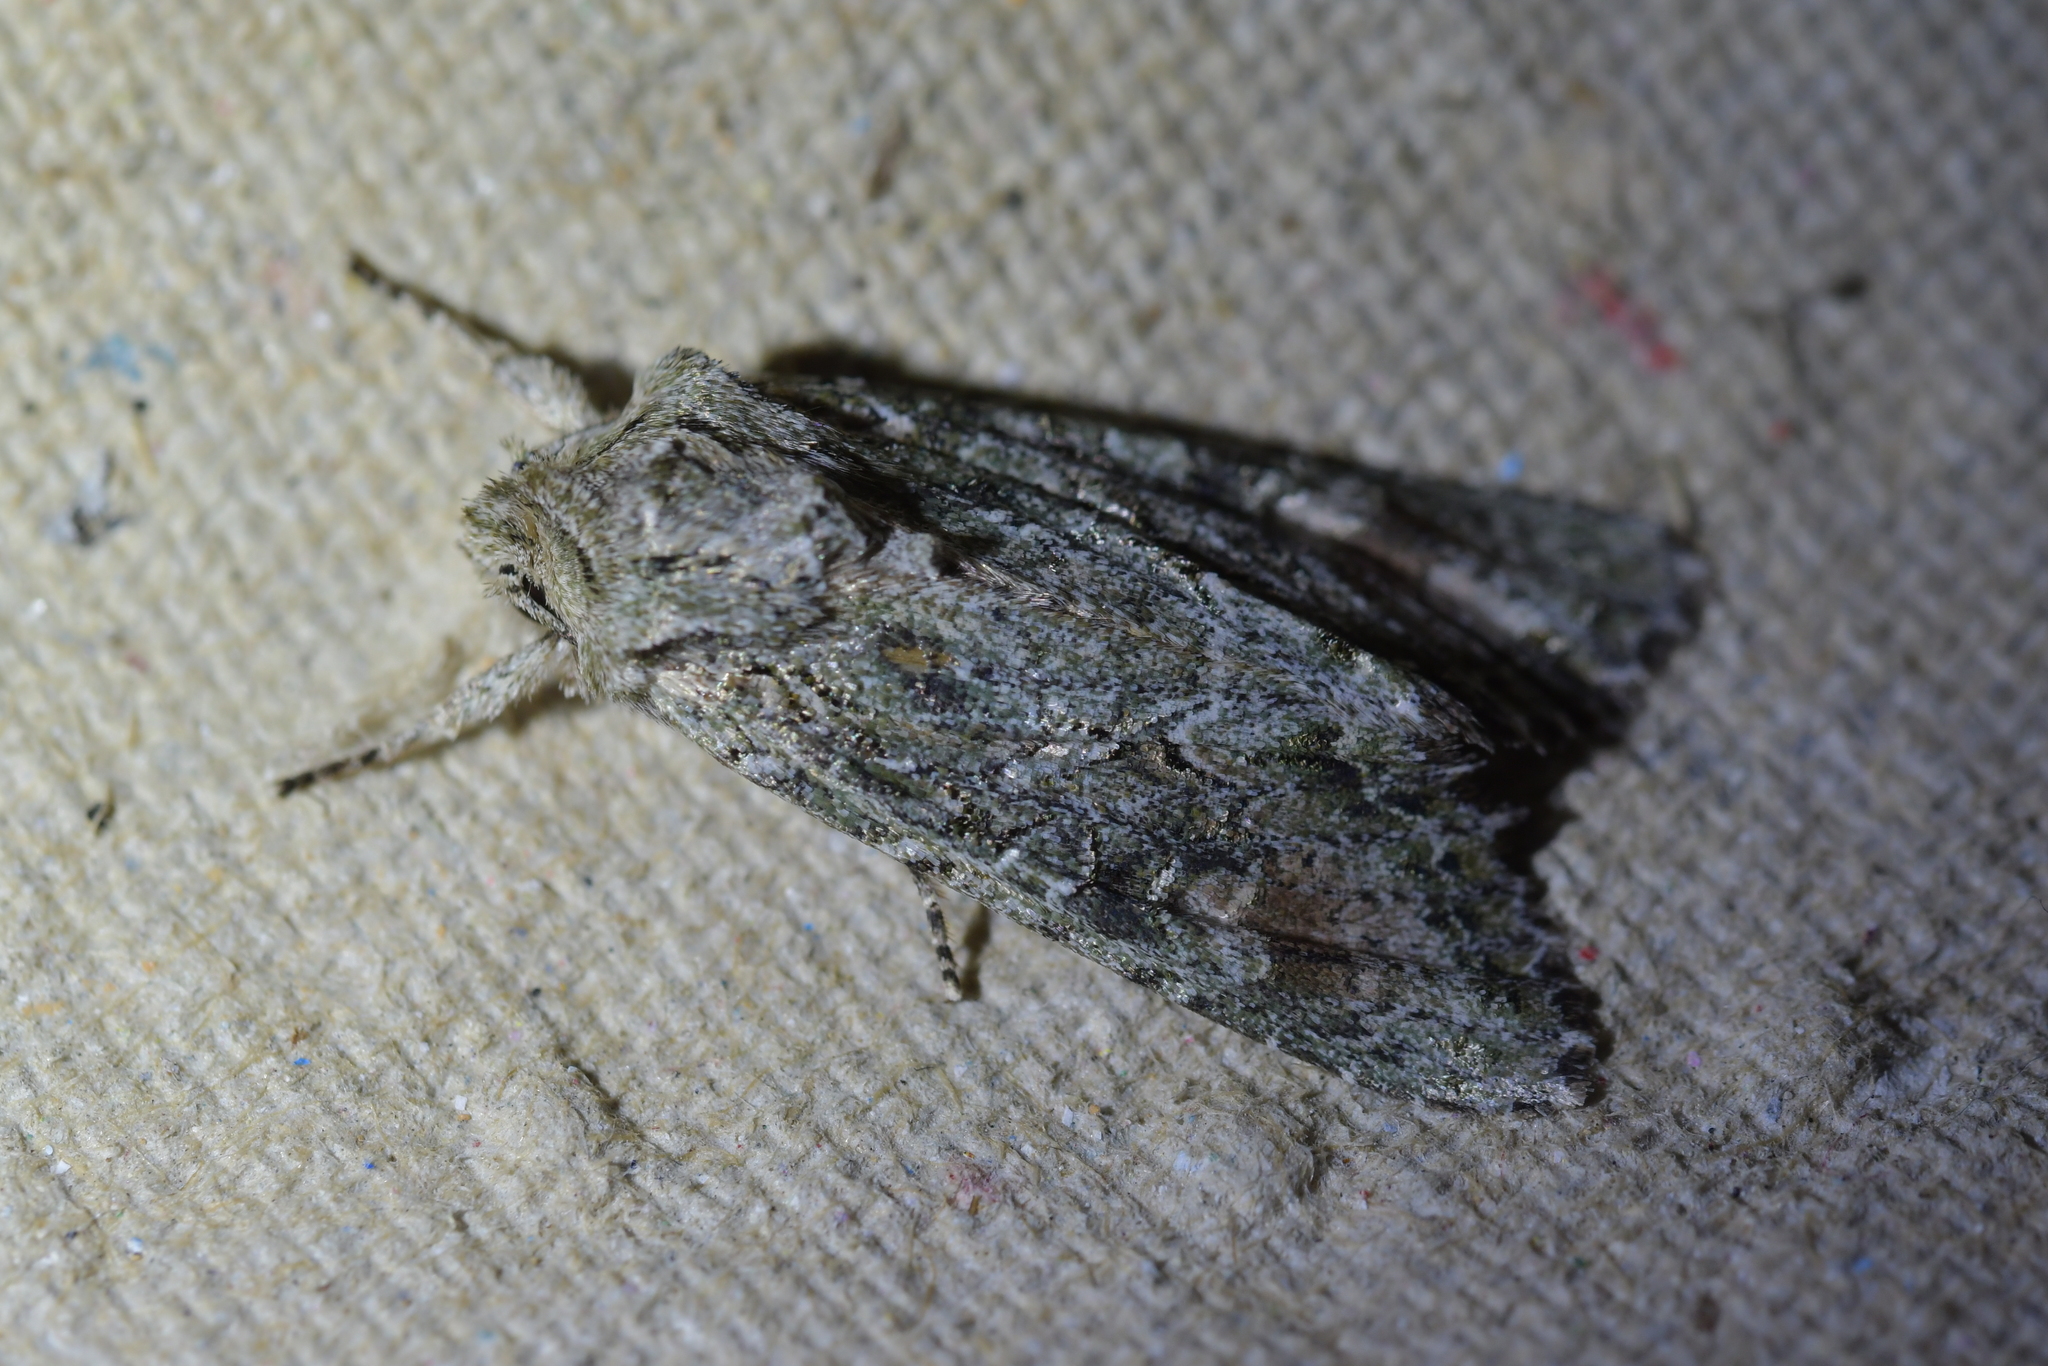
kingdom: Animalia
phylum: Arthropoda
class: Insecta
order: Lepidoptera
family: Noctuidae
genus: Ichneutica
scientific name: Ichneutica mutans
